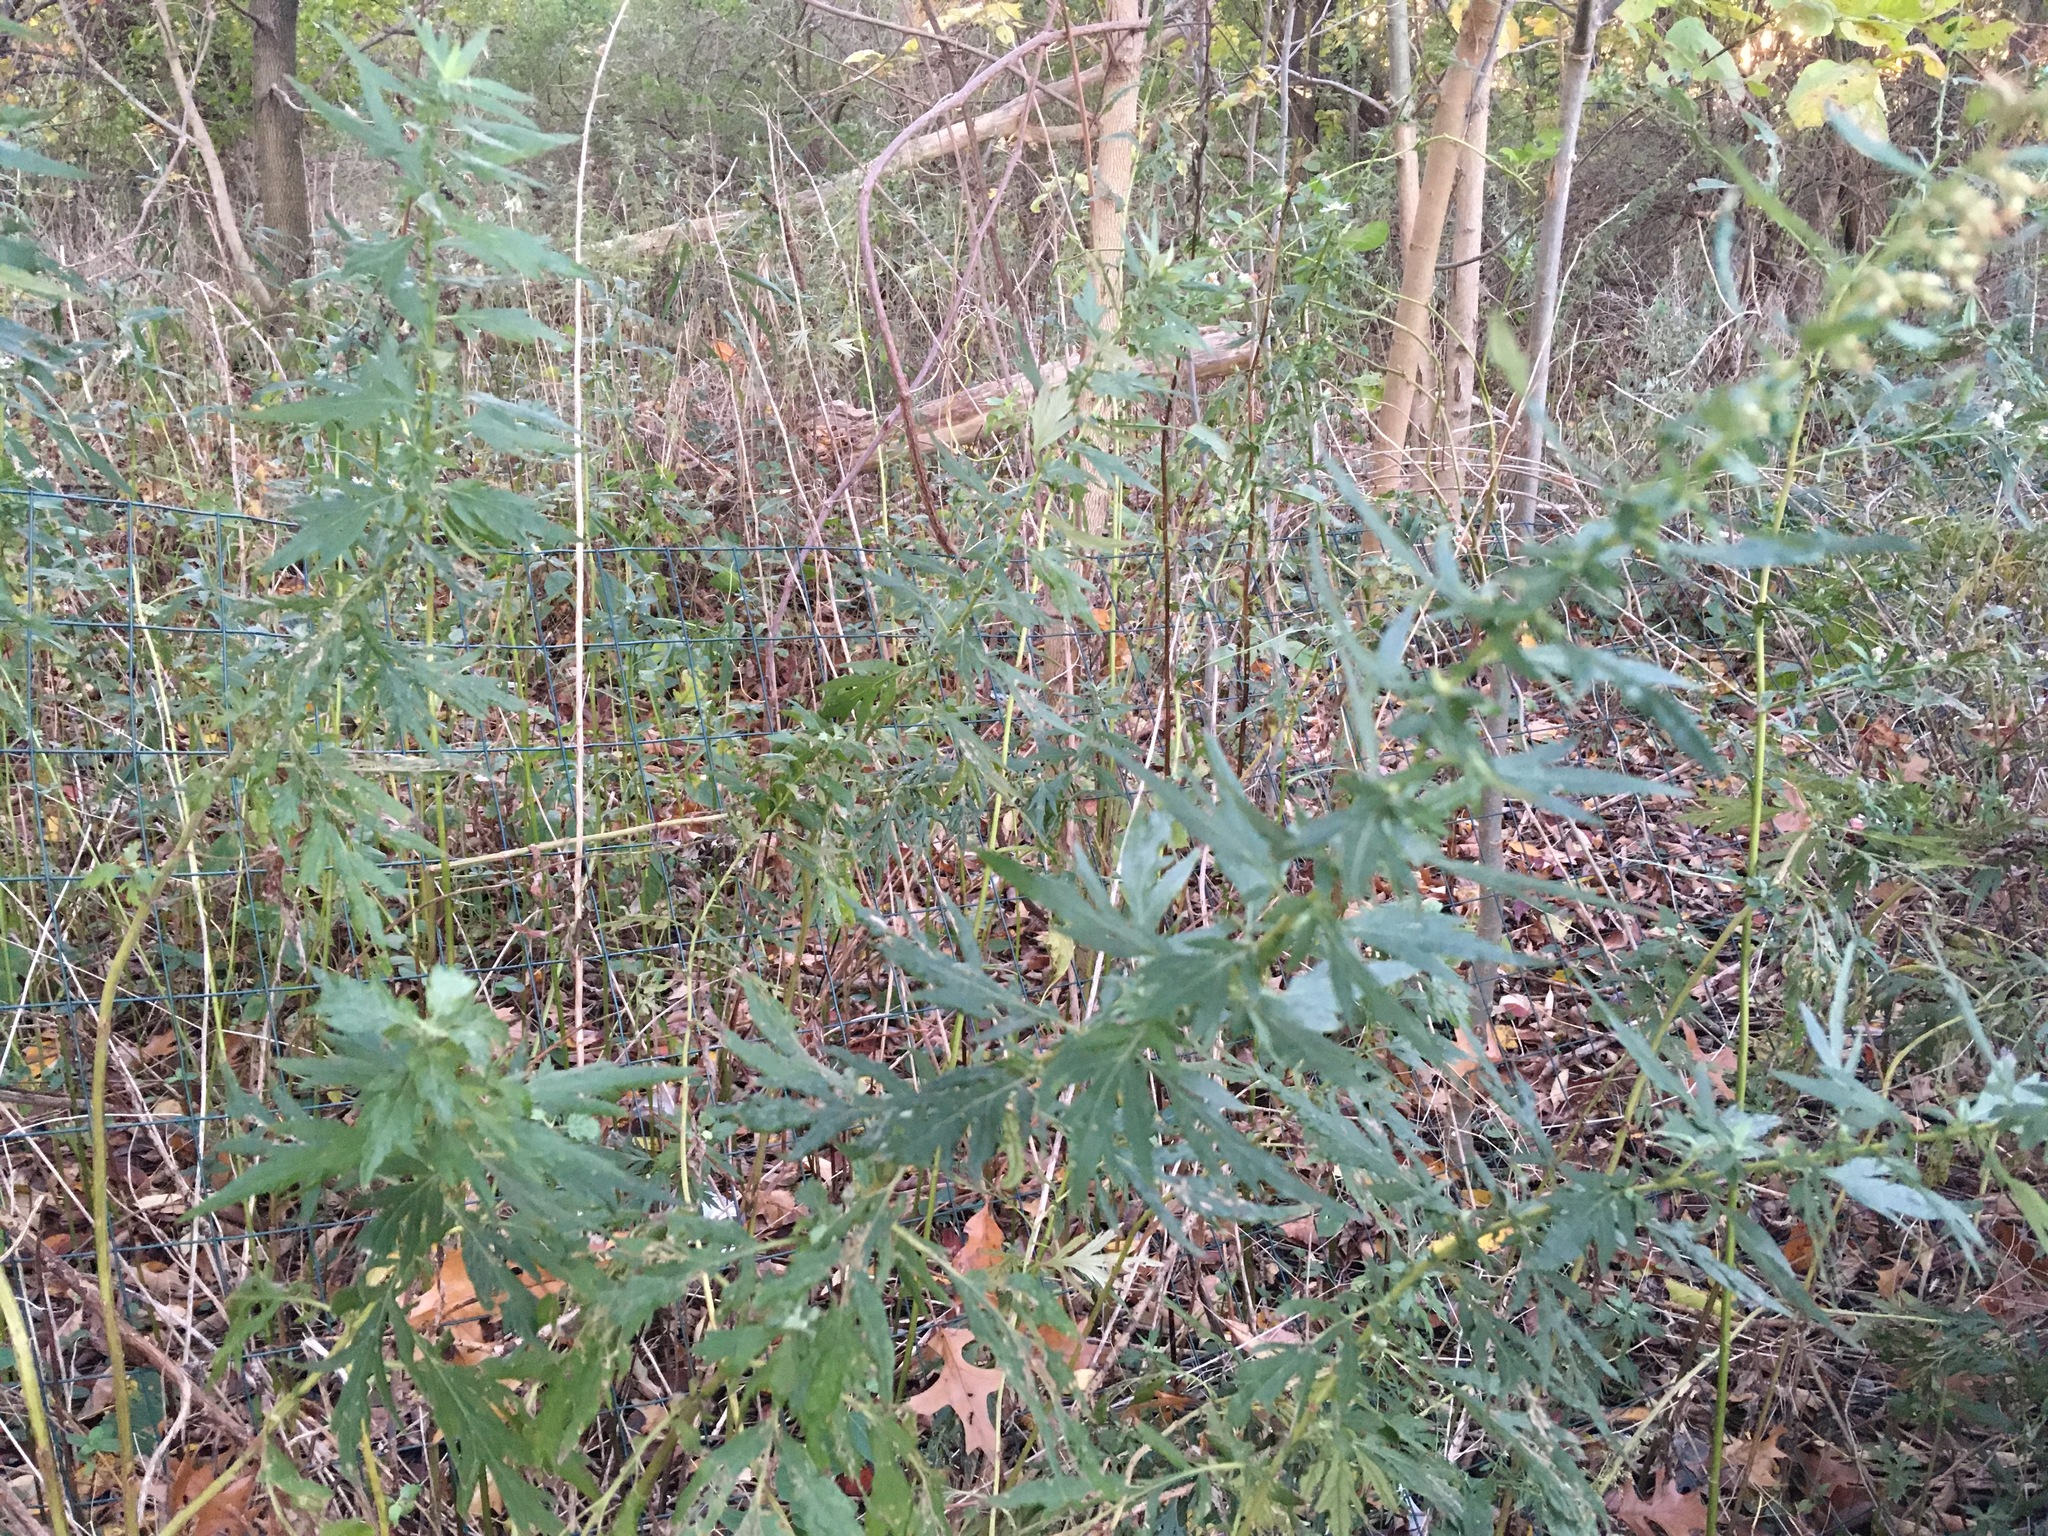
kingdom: Plantae
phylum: Tracheophyta
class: Magnoliopsida
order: Asterales
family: Asteraceae
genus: Artemisia
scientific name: Artemisia vulgaris
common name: Mugwort
